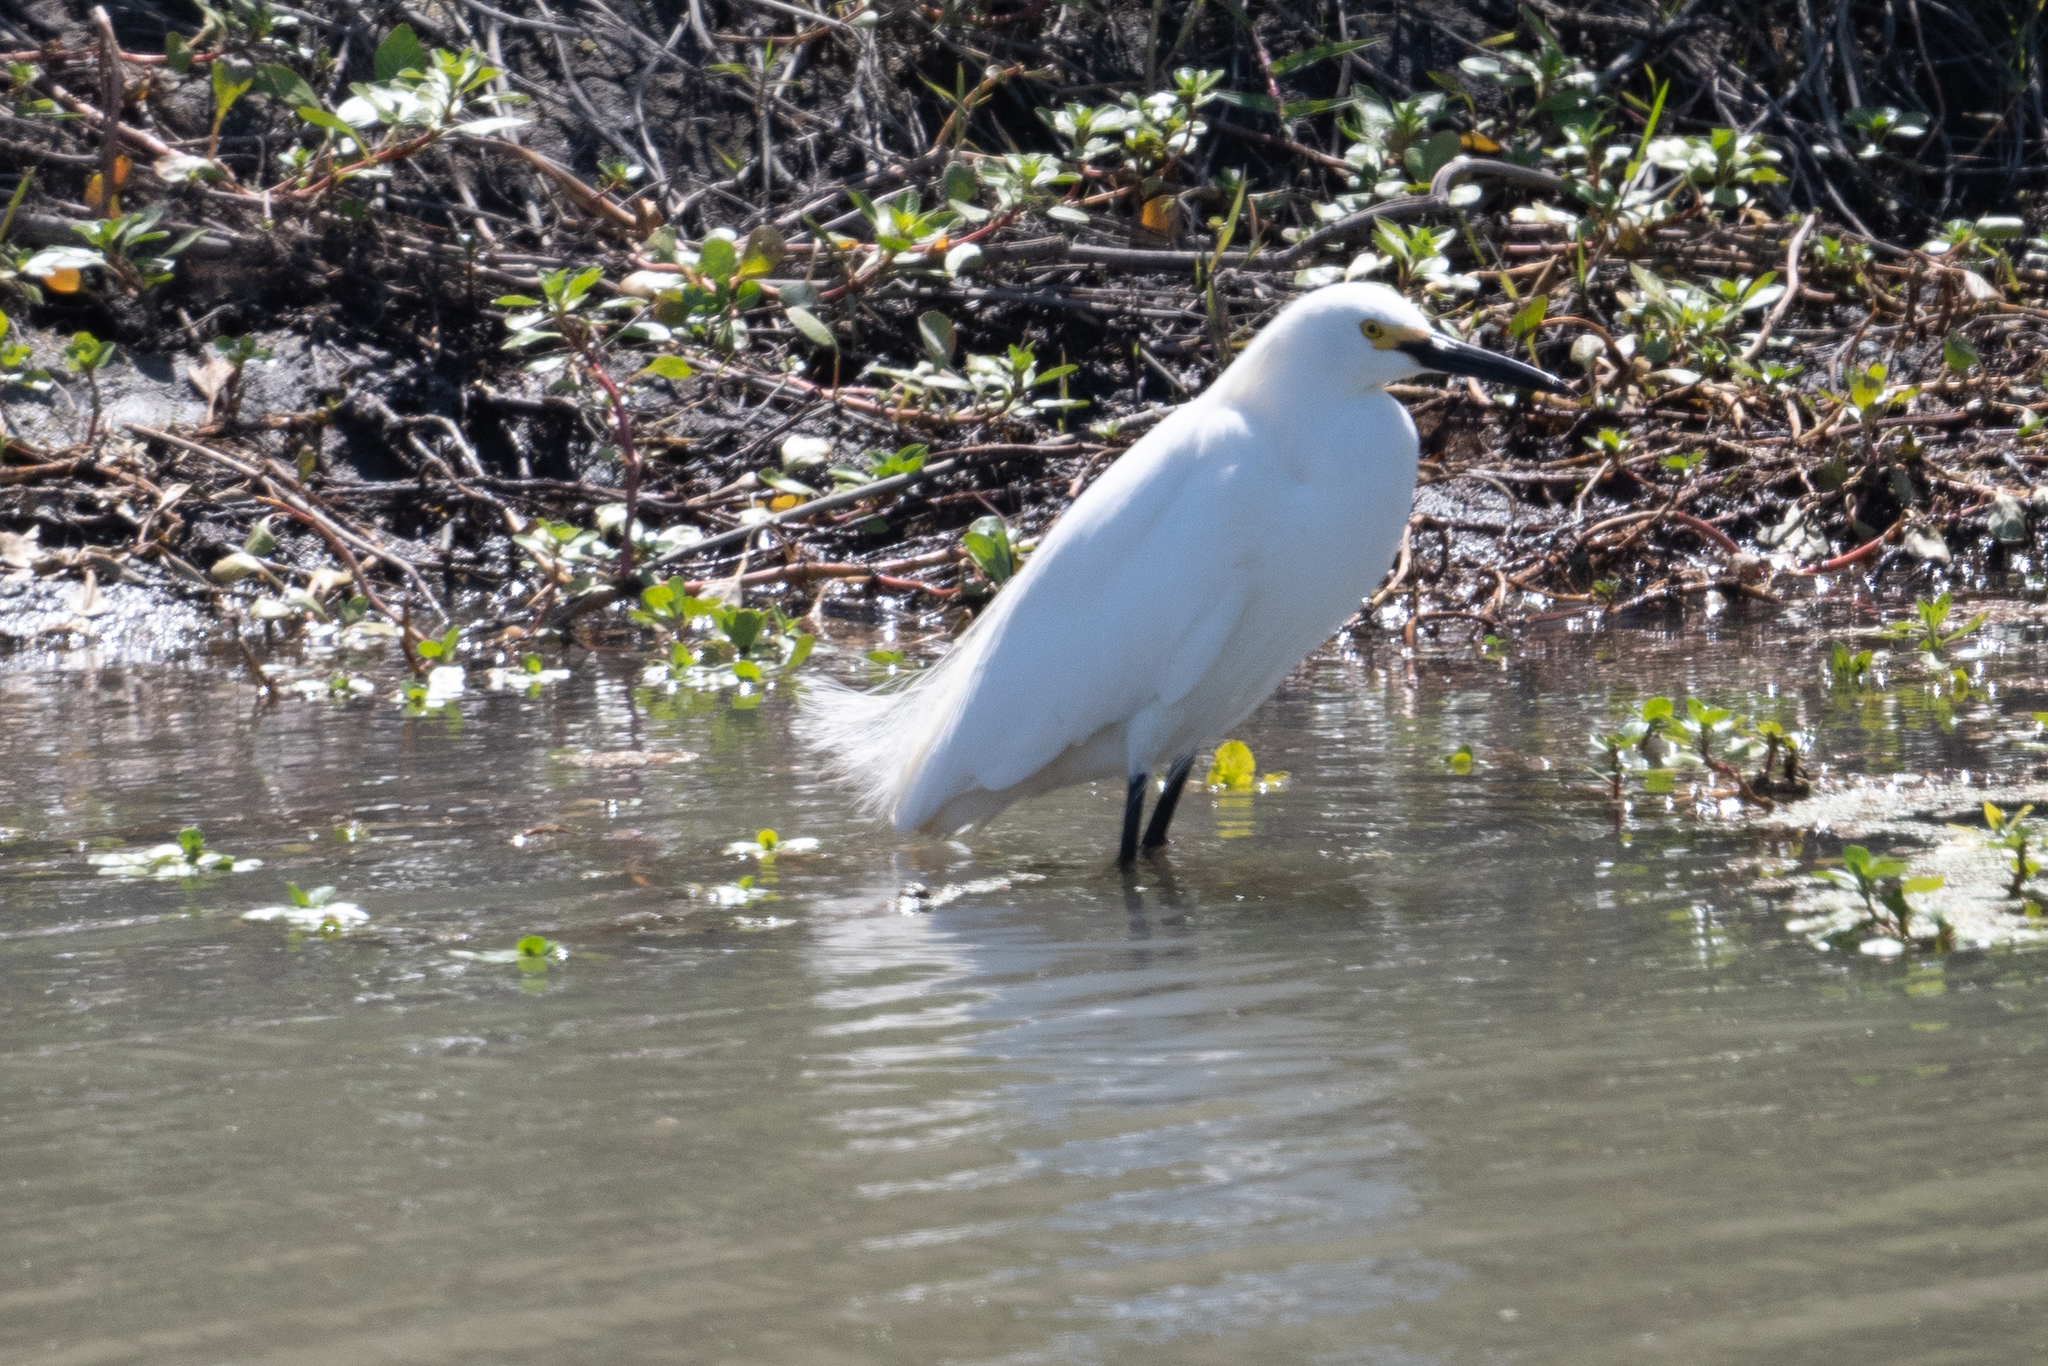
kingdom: Animalia
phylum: Chordata
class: Aves
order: Pelecaniformes
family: Ardeidae
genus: Egretta
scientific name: Egretta thula
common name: Snowy egret
